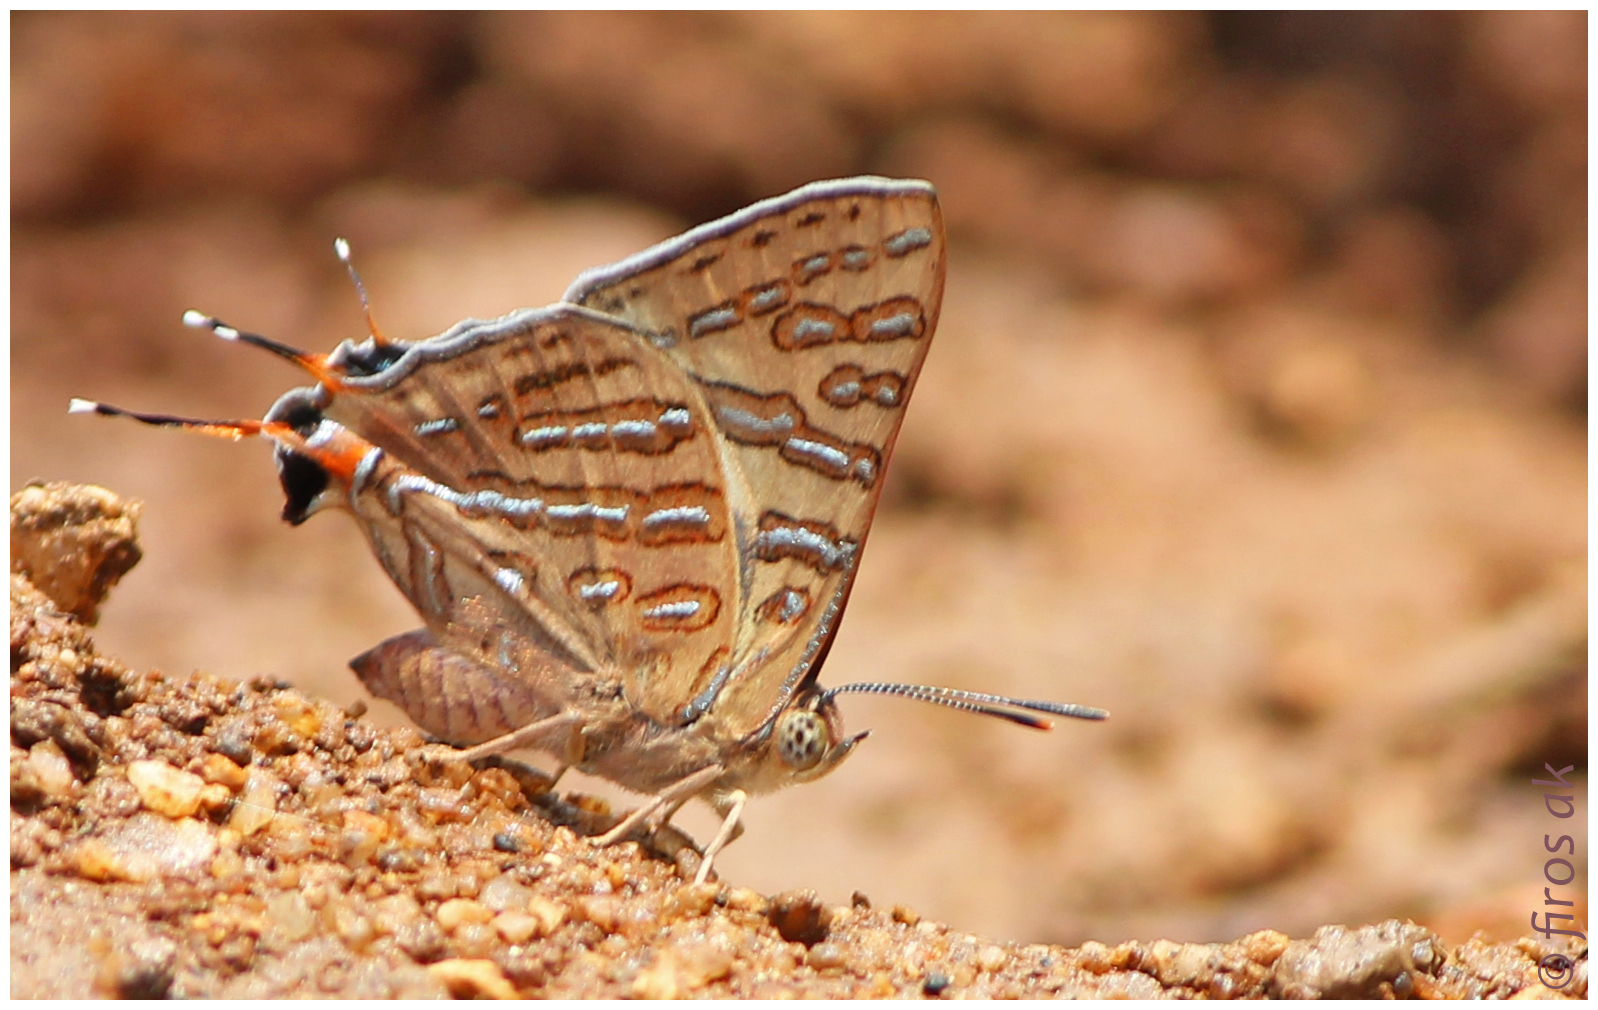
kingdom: Animalia
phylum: Arthropoda
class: Insecta
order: Lepidoptera
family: Lycaenidae
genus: Cigaritis
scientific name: Cigaritis elima
